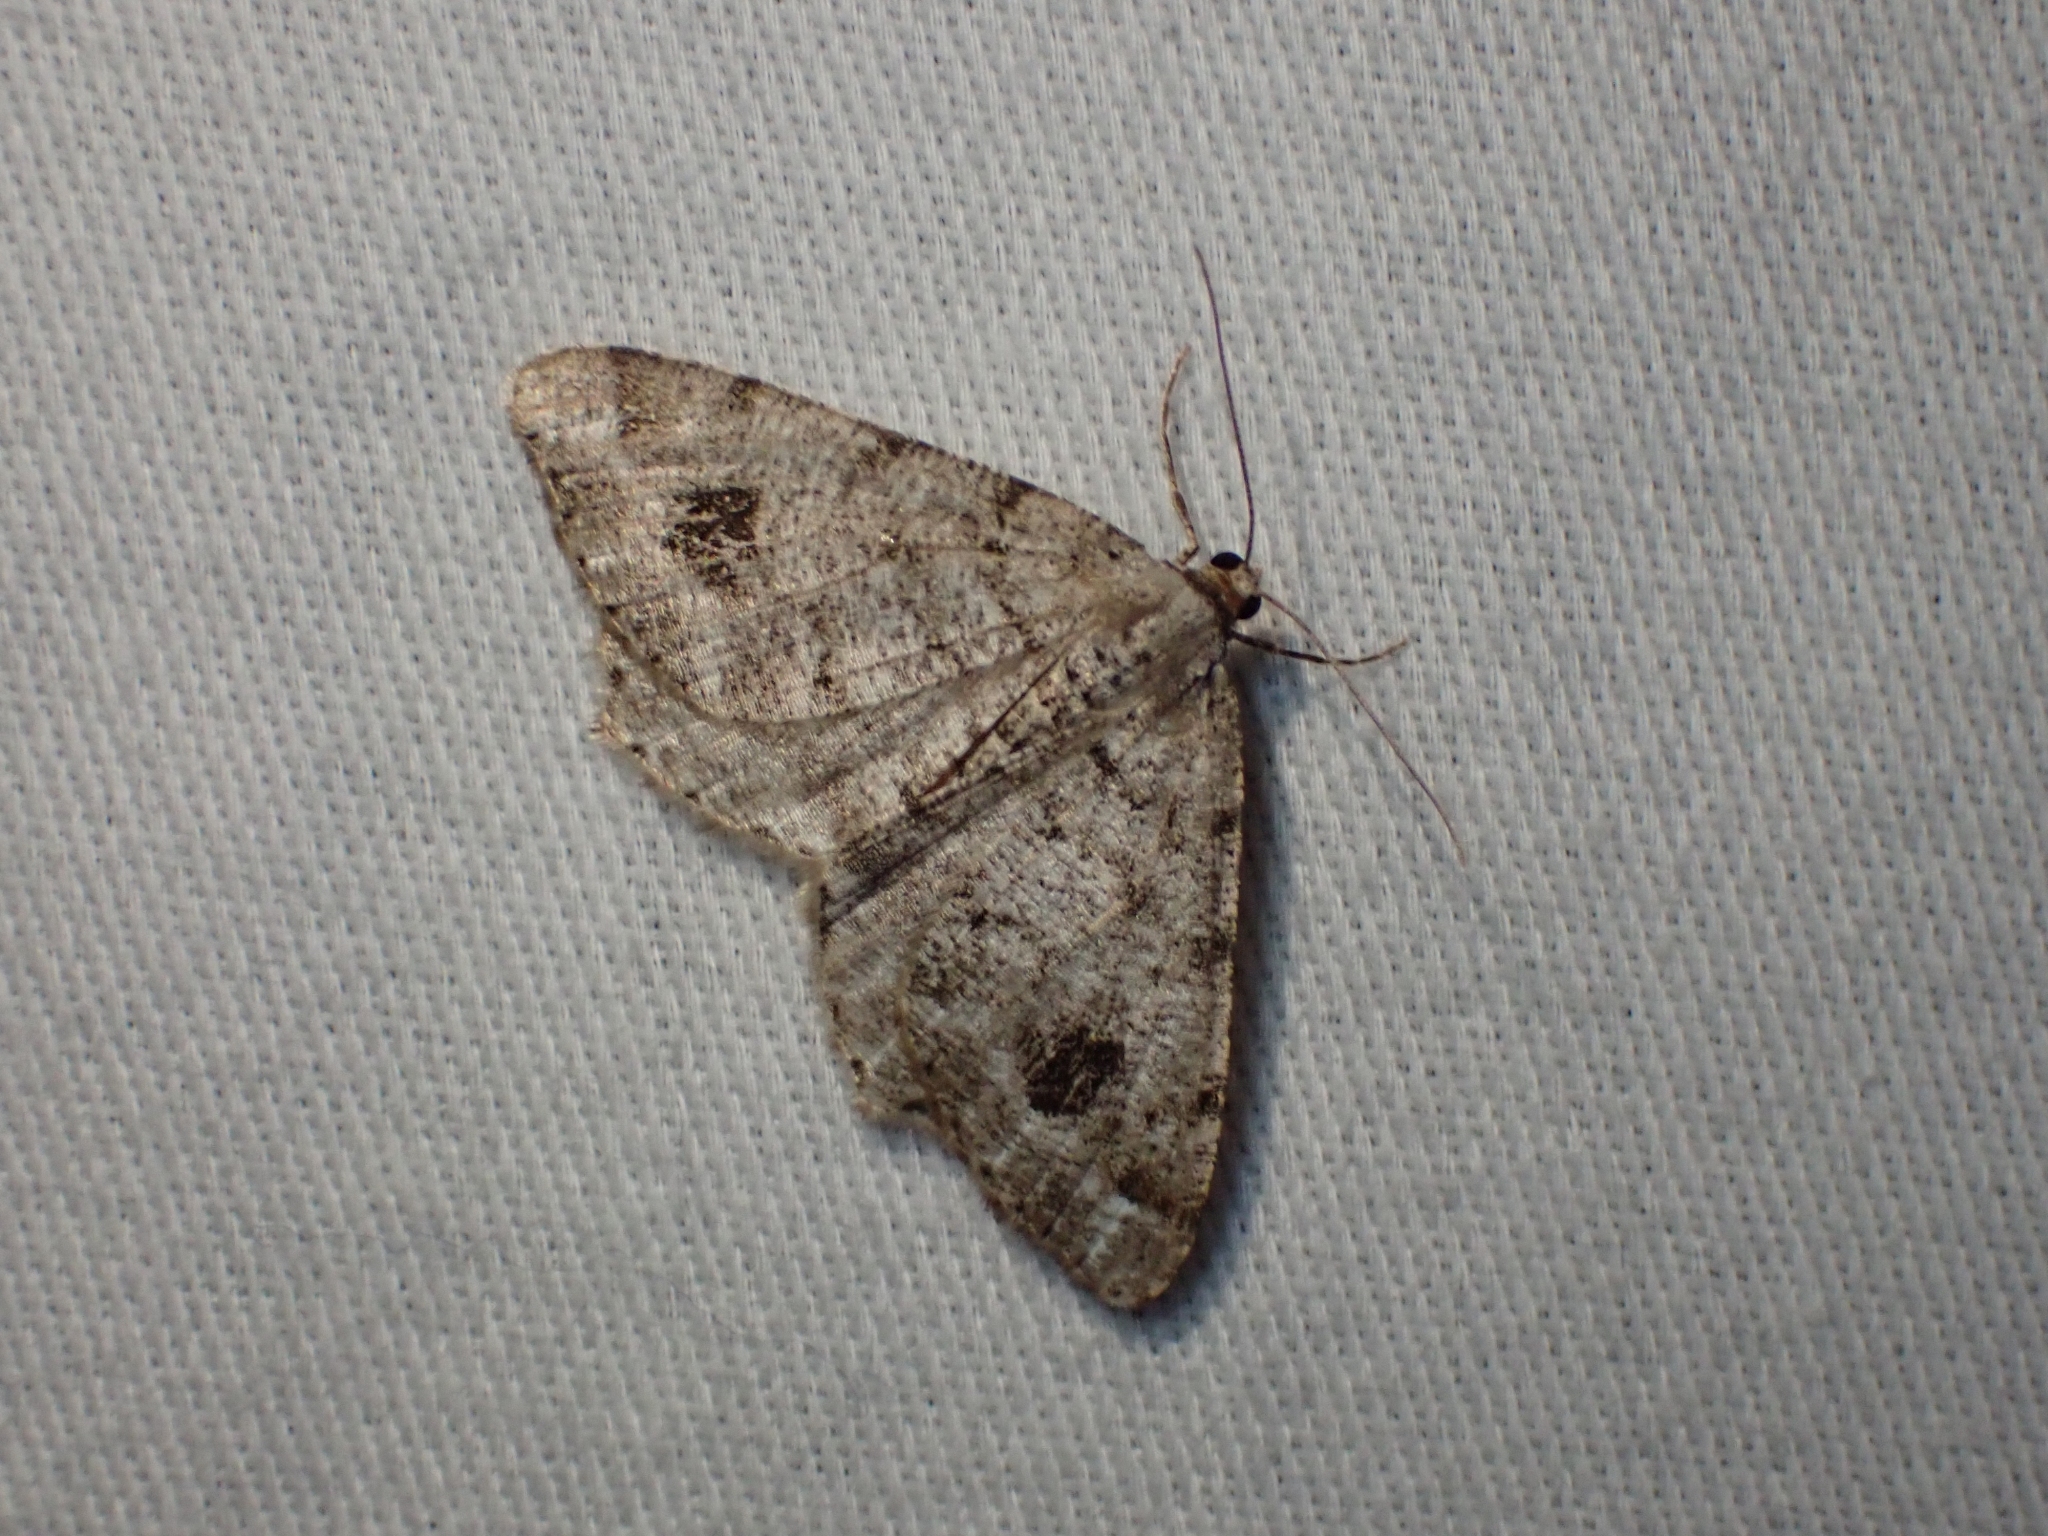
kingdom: Animalia
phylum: Arthropoda
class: Insecta
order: Lepidoptera
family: Geometridae
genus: Macaria
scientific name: Macaria signaria
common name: Dusky peacock
